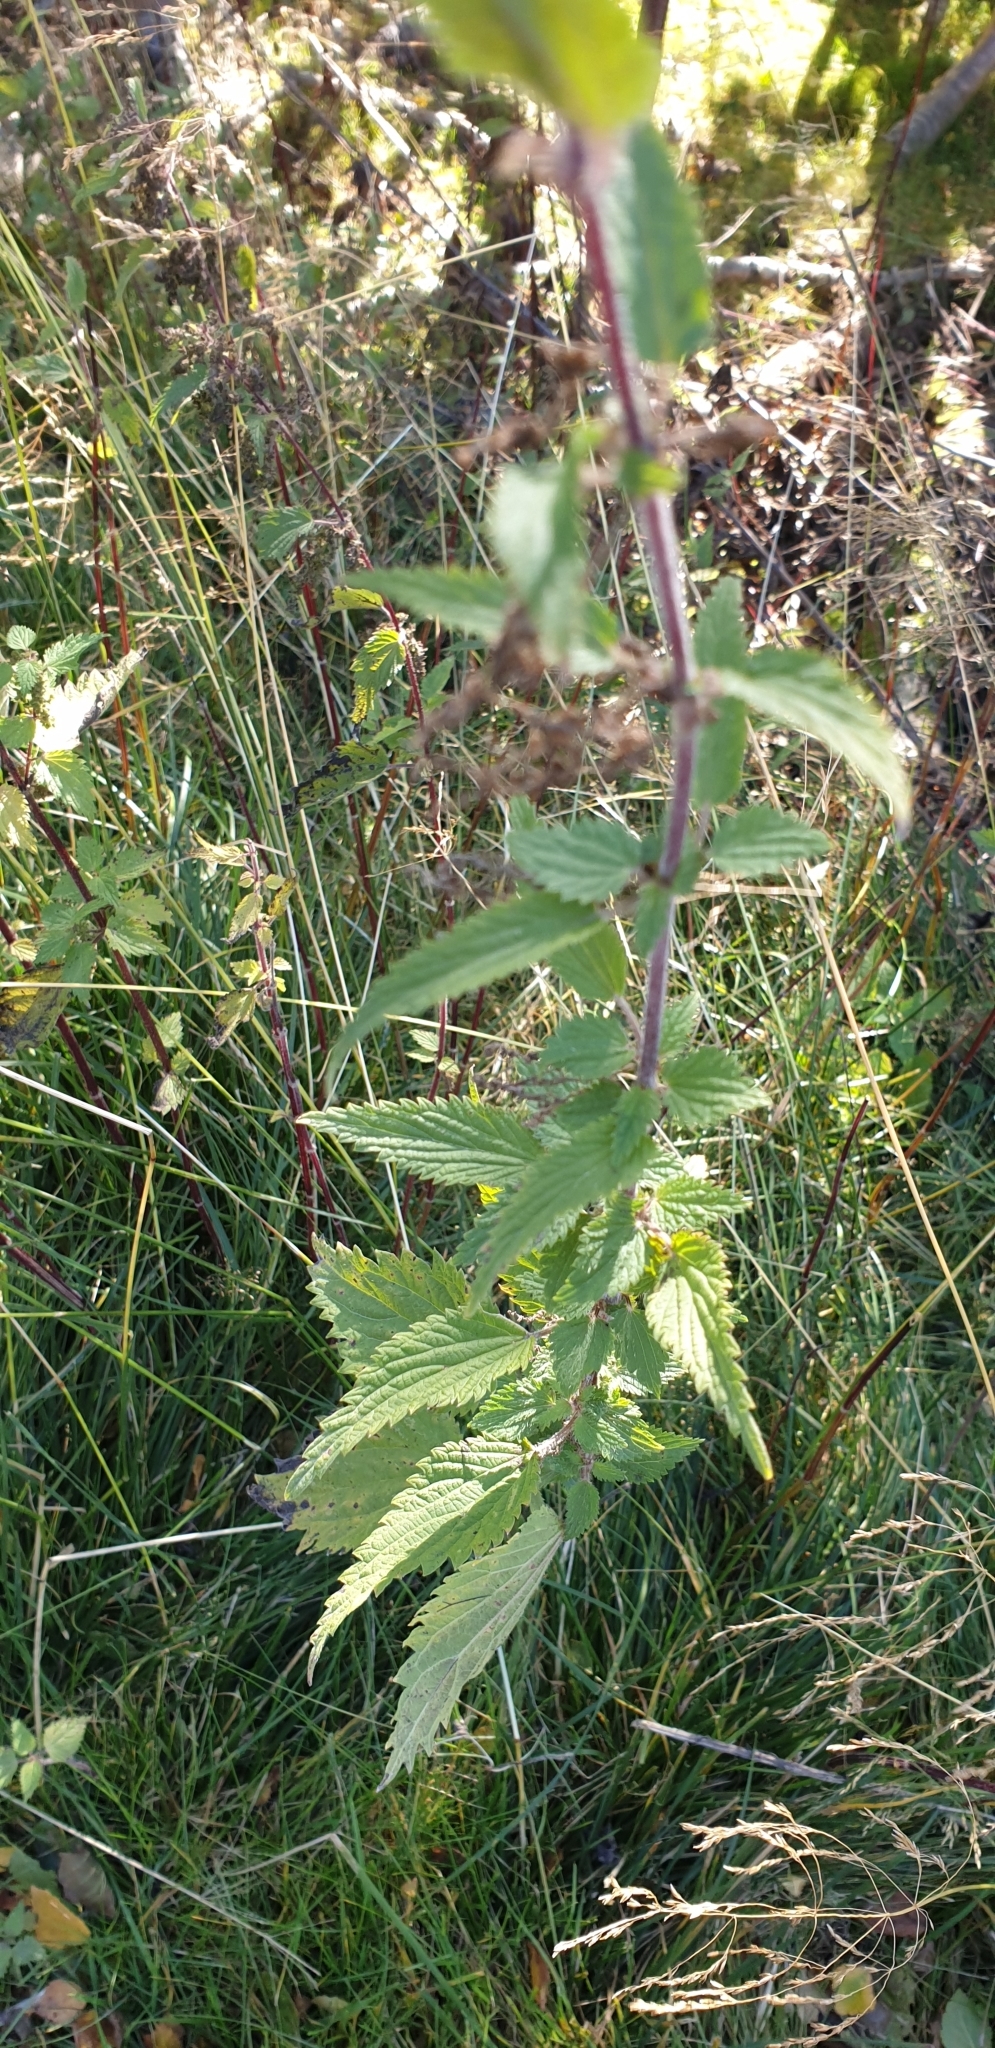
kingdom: Plantae
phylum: Tracheophyta
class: Magnoliopsida
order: Rosales
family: Urticaceae
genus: Urtica
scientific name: Urtica dioica
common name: Common nettle
